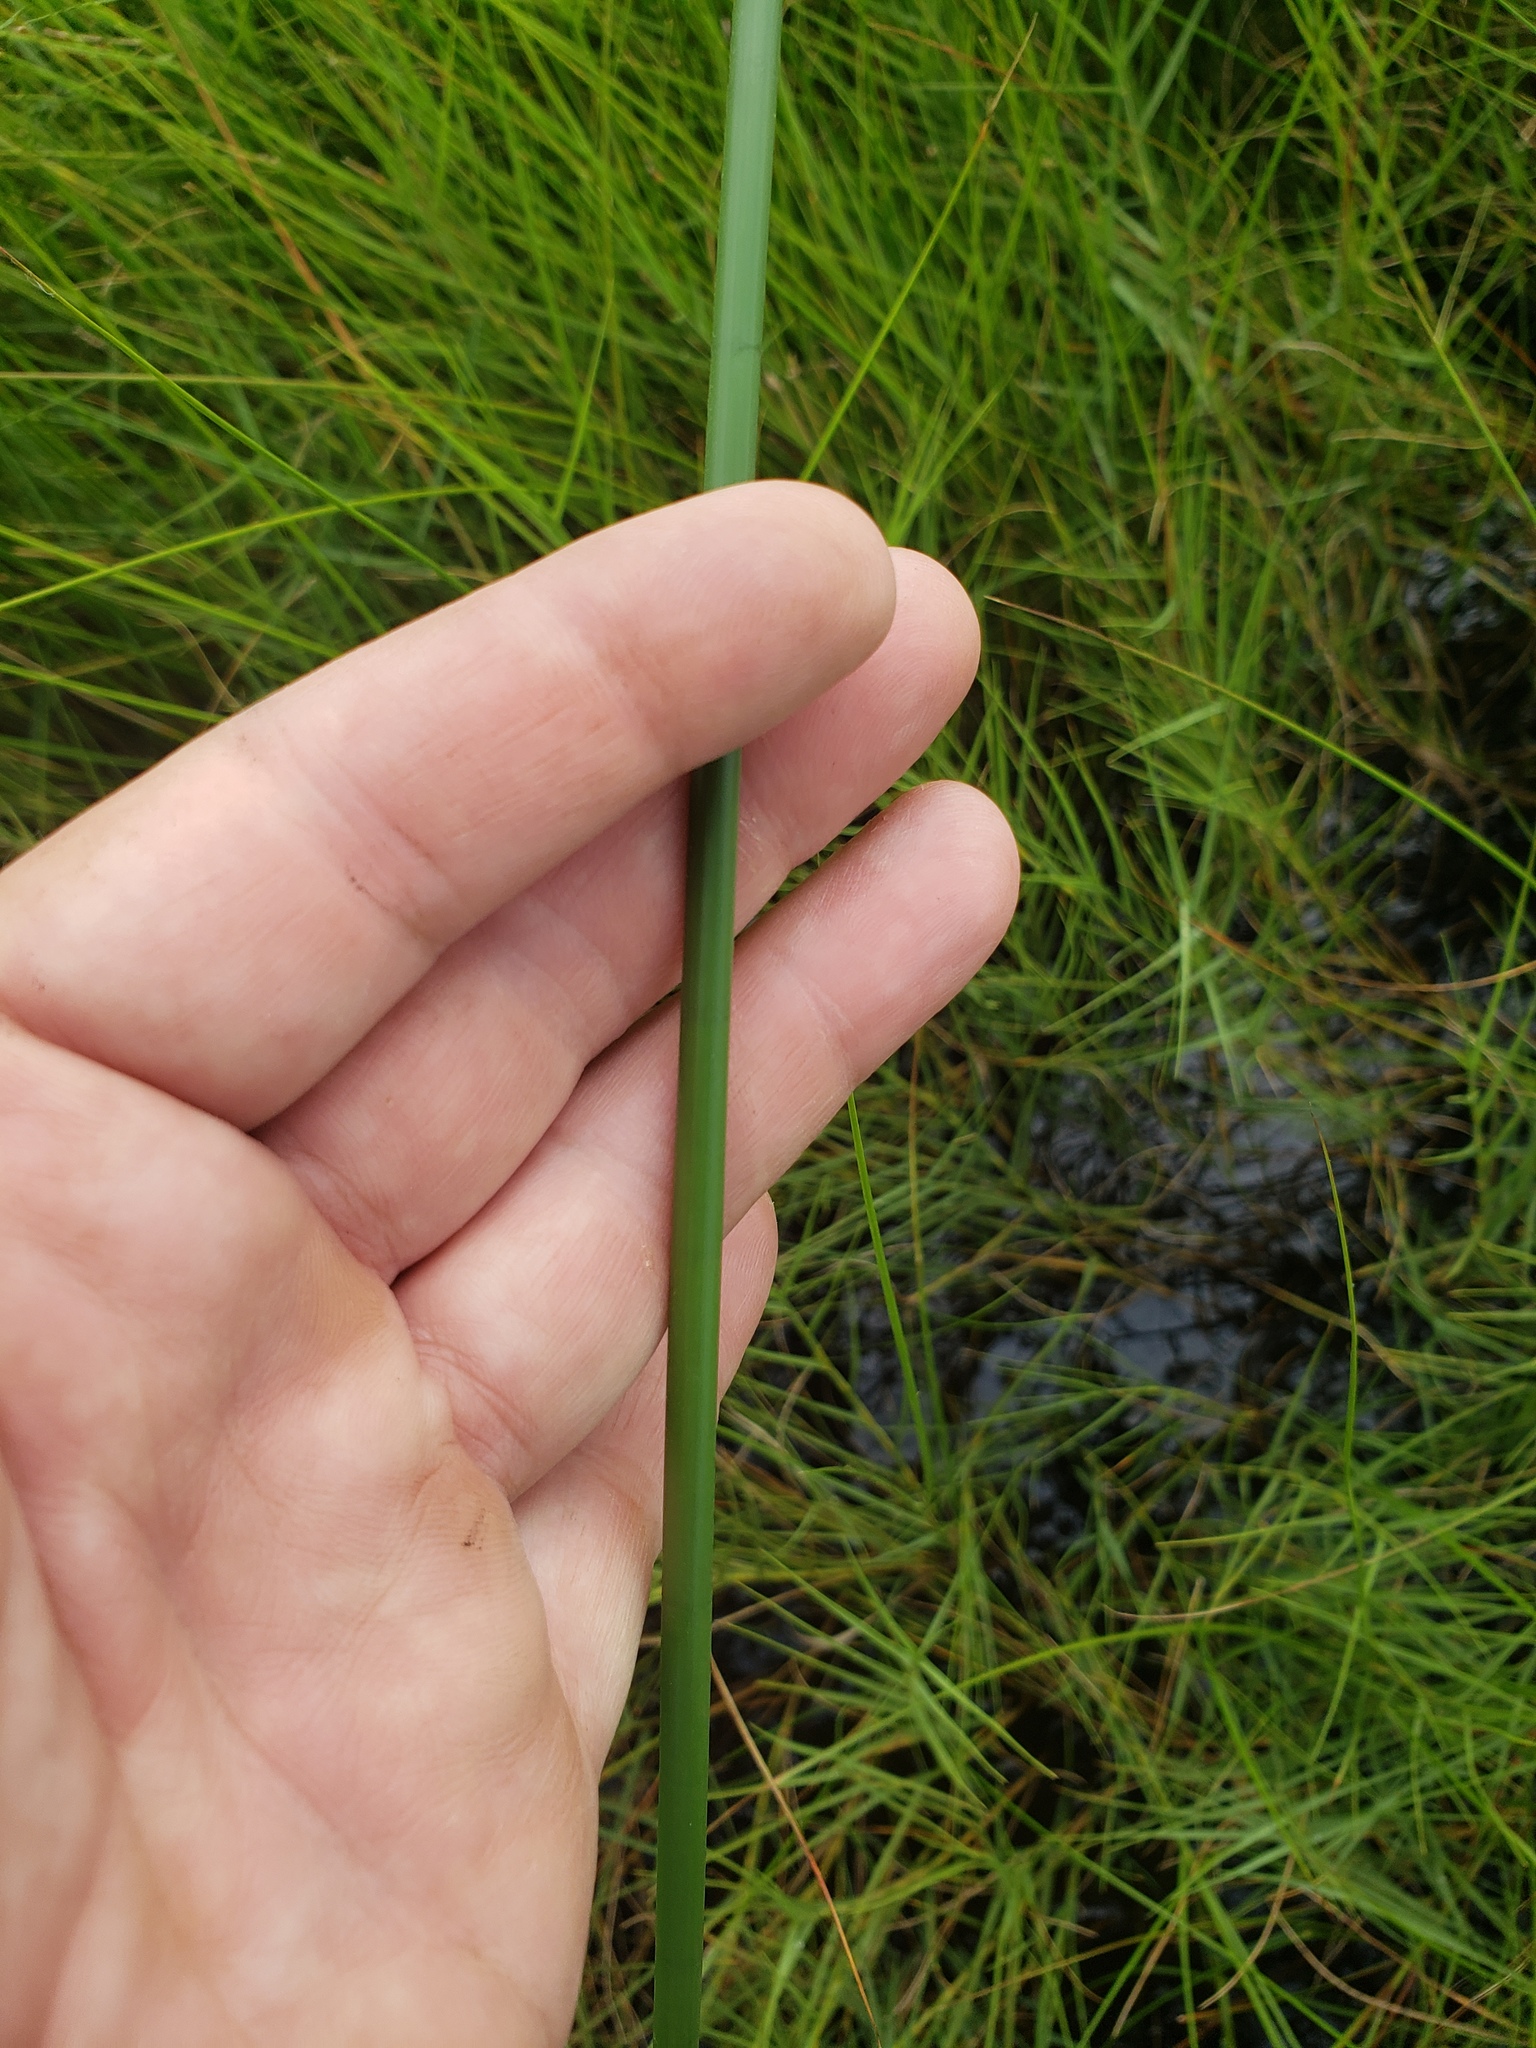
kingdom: Plantae
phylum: Tracheophyta
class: Liliopsida
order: Poales
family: Cyperaceae
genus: Cyperus
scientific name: Cyperus articulatus
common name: Jointed flatsedge
